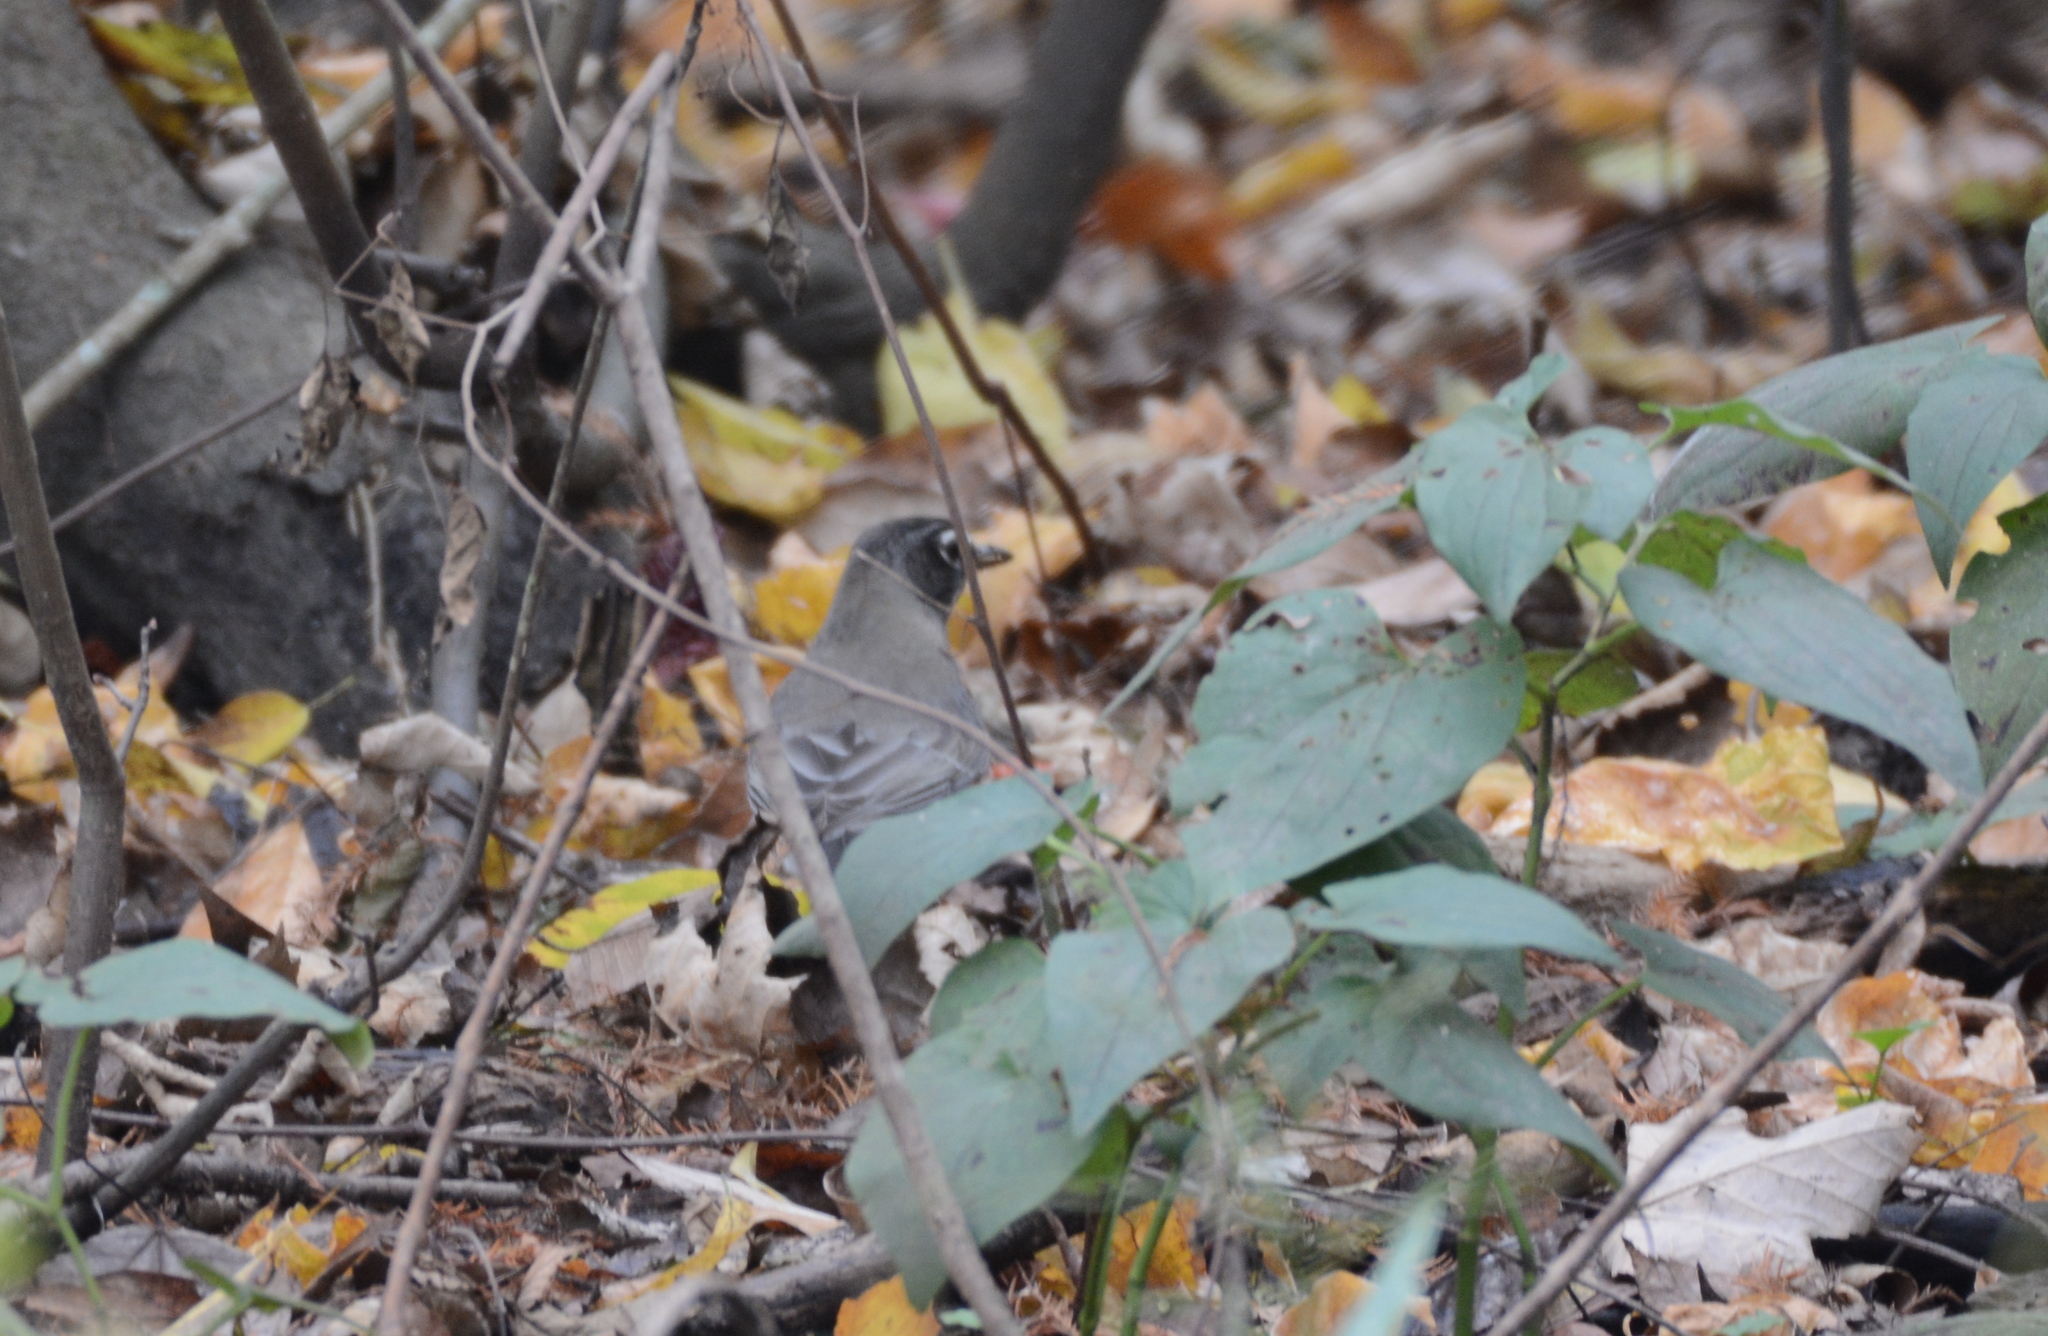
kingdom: Animalia
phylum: Chordata
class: Aves
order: Passeriformes
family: Turdidae
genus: Turdus
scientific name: Turdus migratorius
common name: American robin
